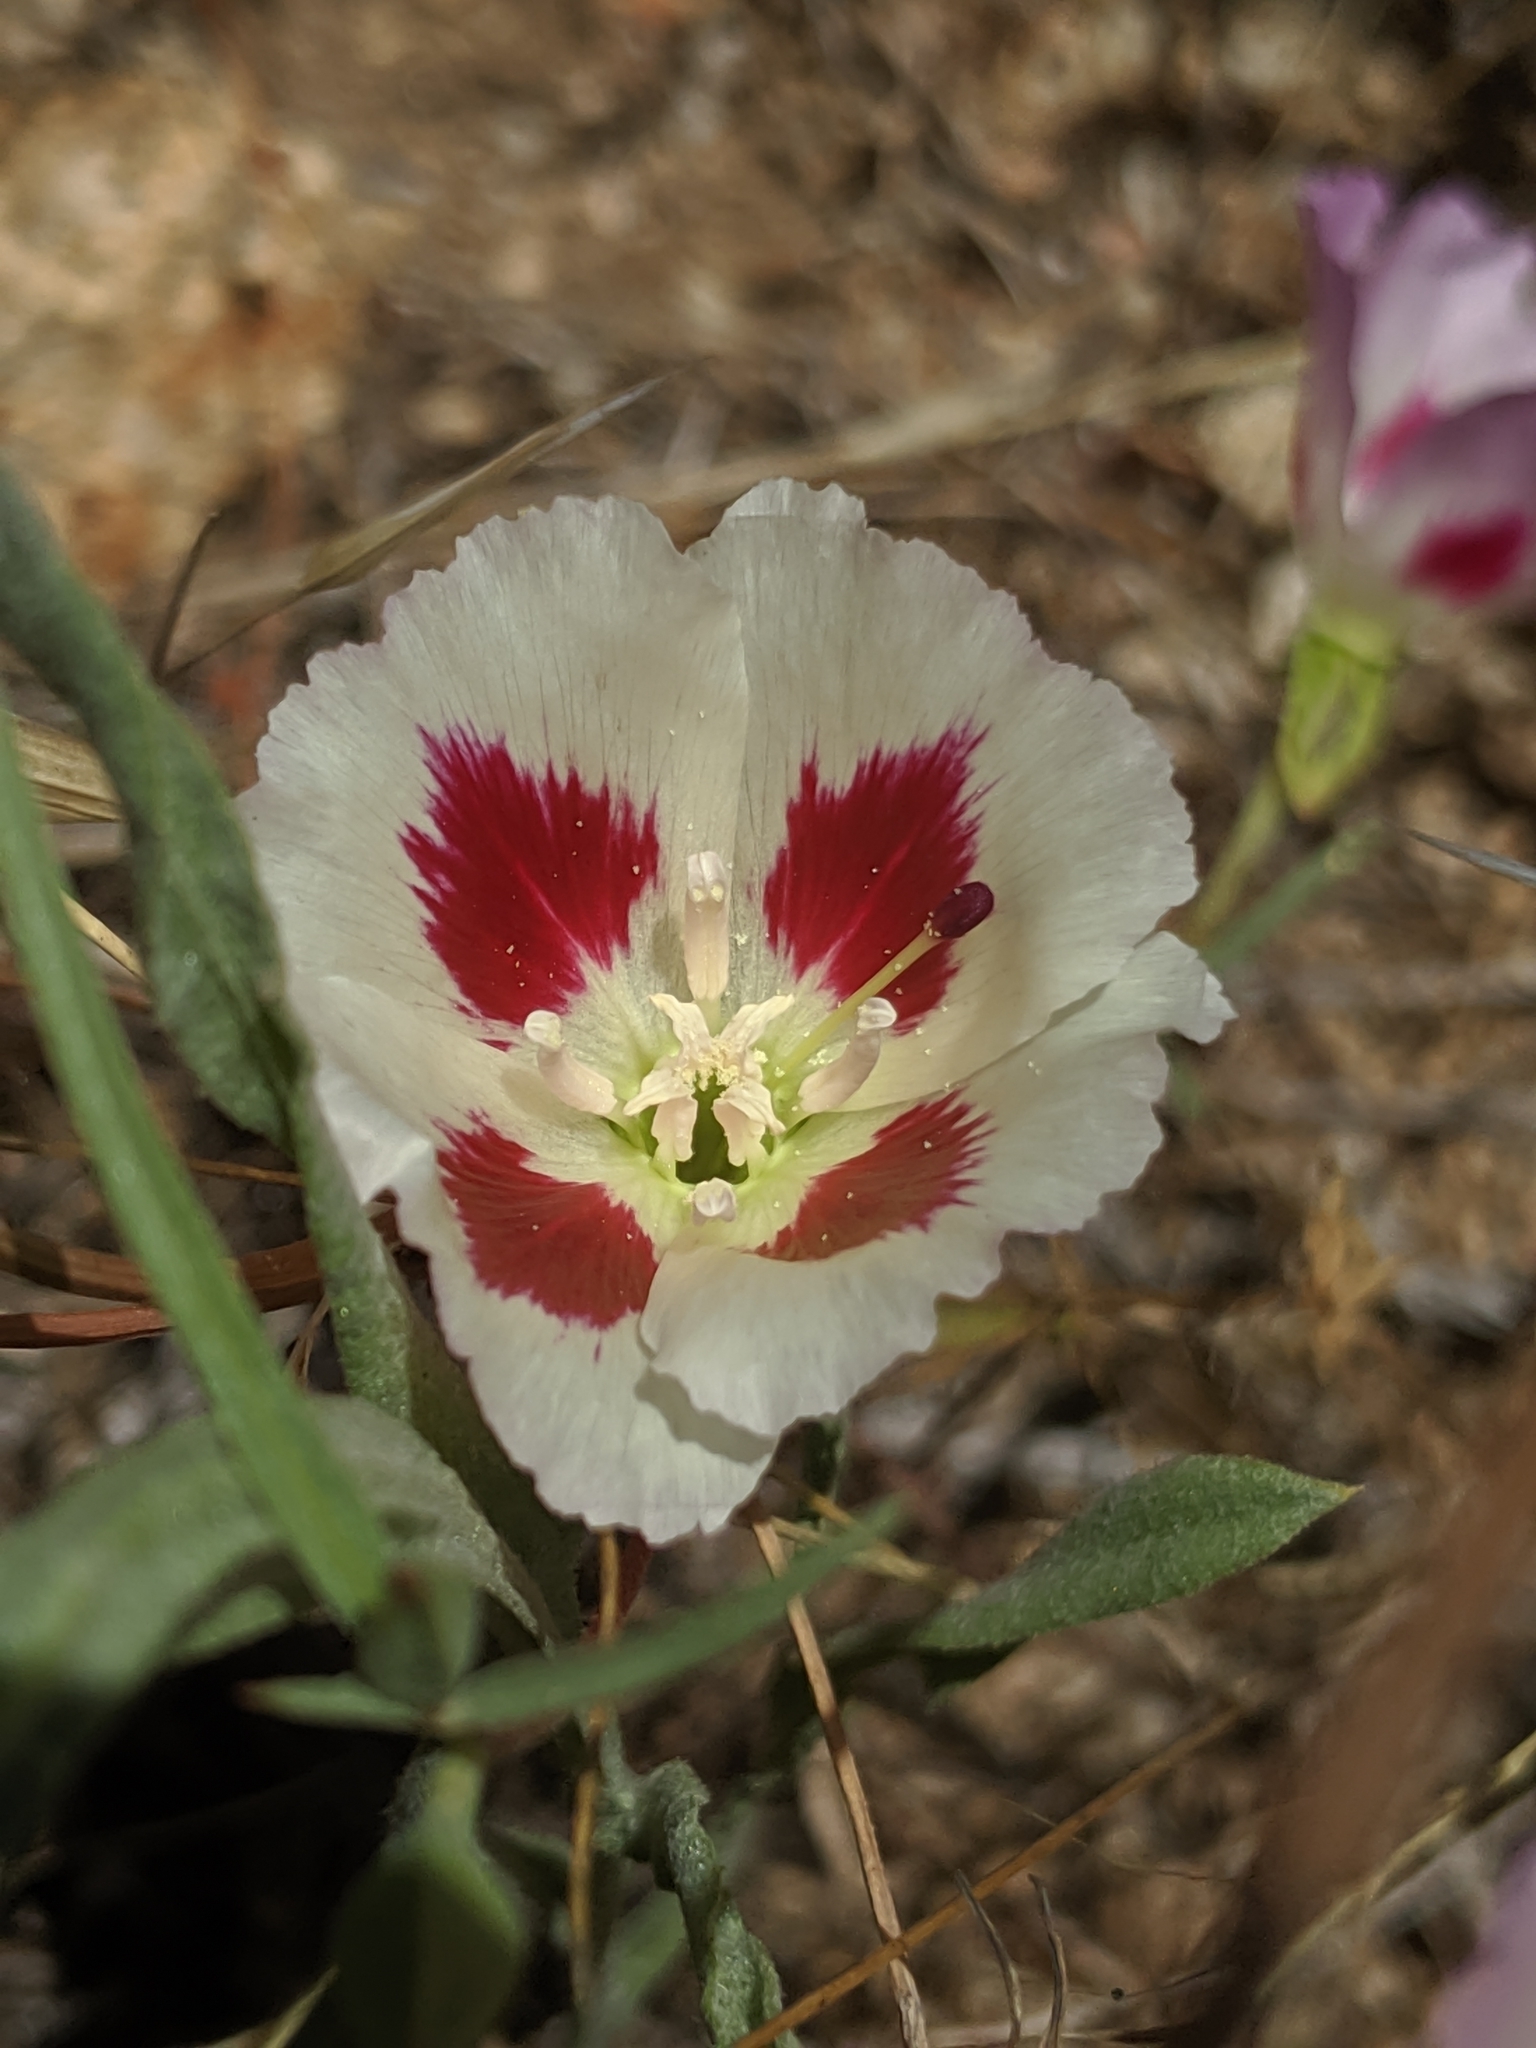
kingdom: Plantae
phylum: Tracheophyta
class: Magnoliopsida
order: Myrtales
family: Onagraceae
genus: Clarkia
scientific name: Clarkia speciosa
